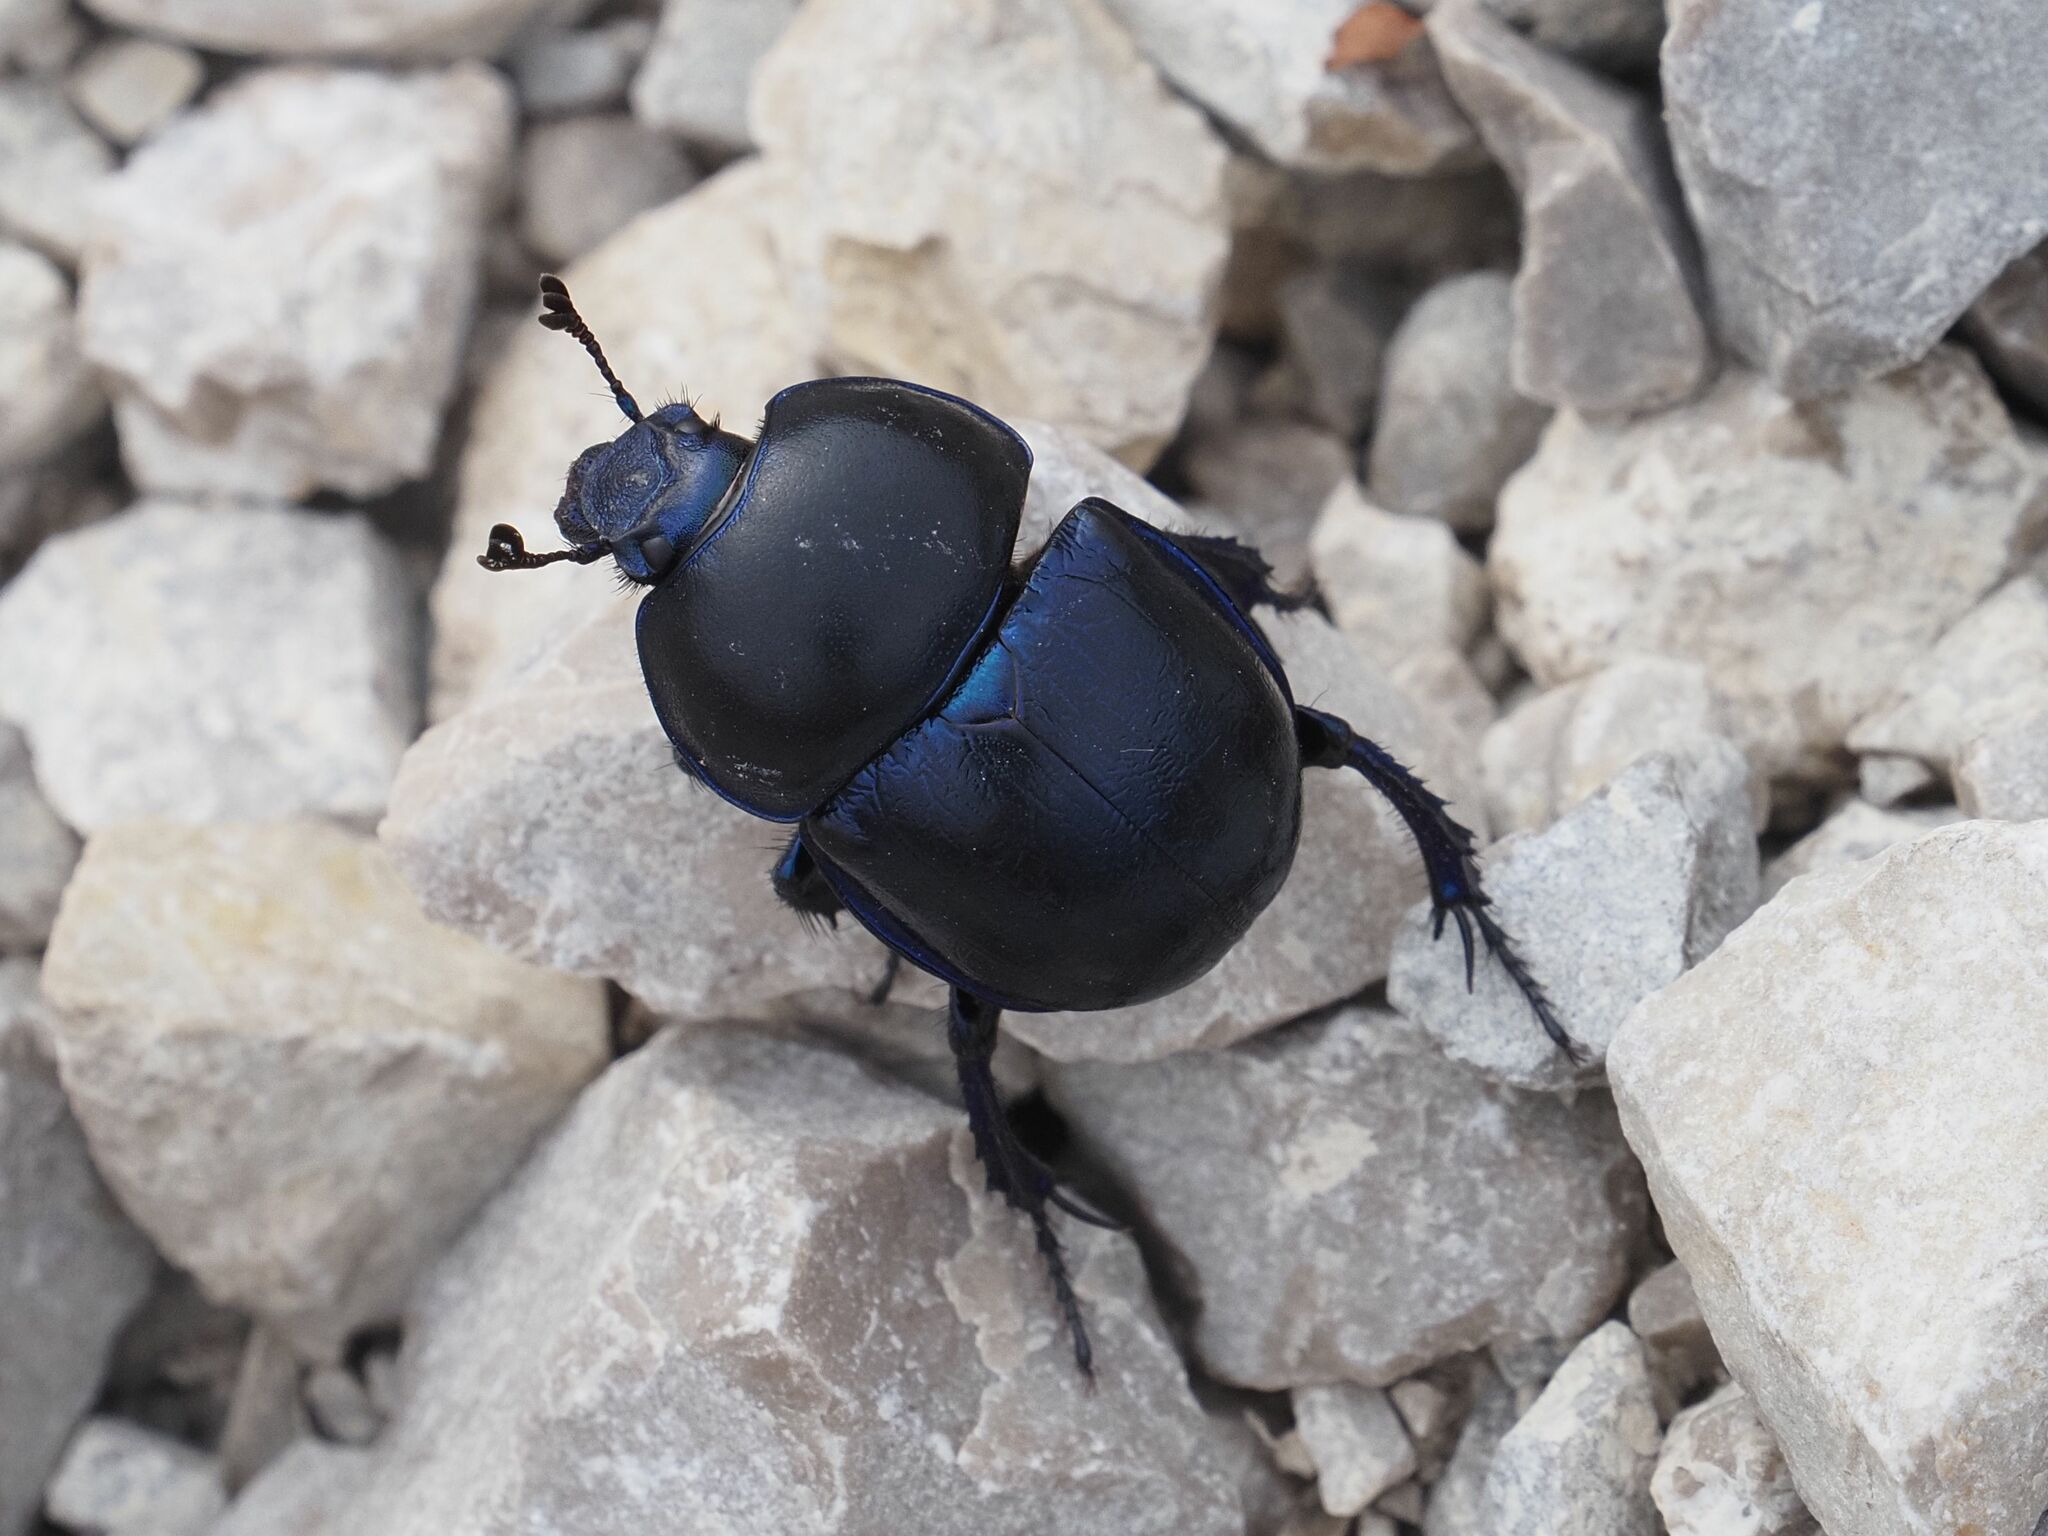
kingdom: Animalia
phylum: Arthropoda
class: Insecta
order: Coleoptera
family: Geotrupidae
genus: Trypocopris
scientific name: Trypocopris vernalis
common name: Spring dumbledor
